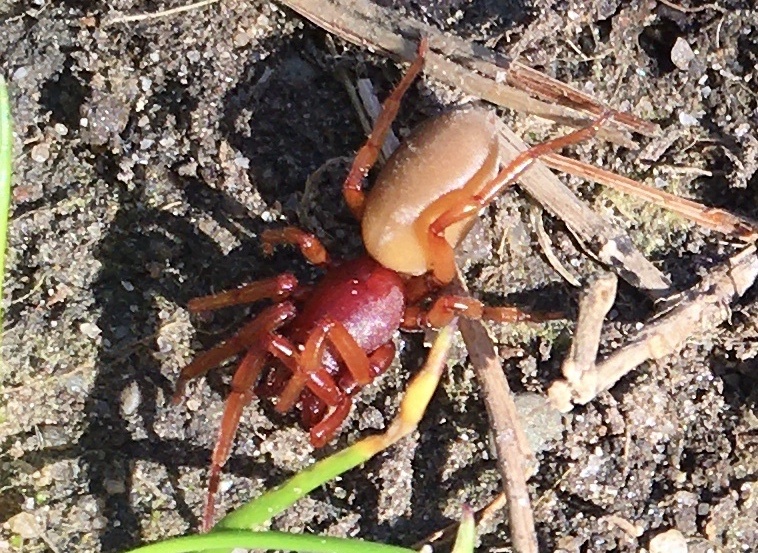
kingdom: Animalia
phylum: Arthropoda
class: Arachnida
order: Araneae
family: Dysderidae
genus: Dysdera
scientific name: Dysdera crocata
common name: Woodlouse spider
